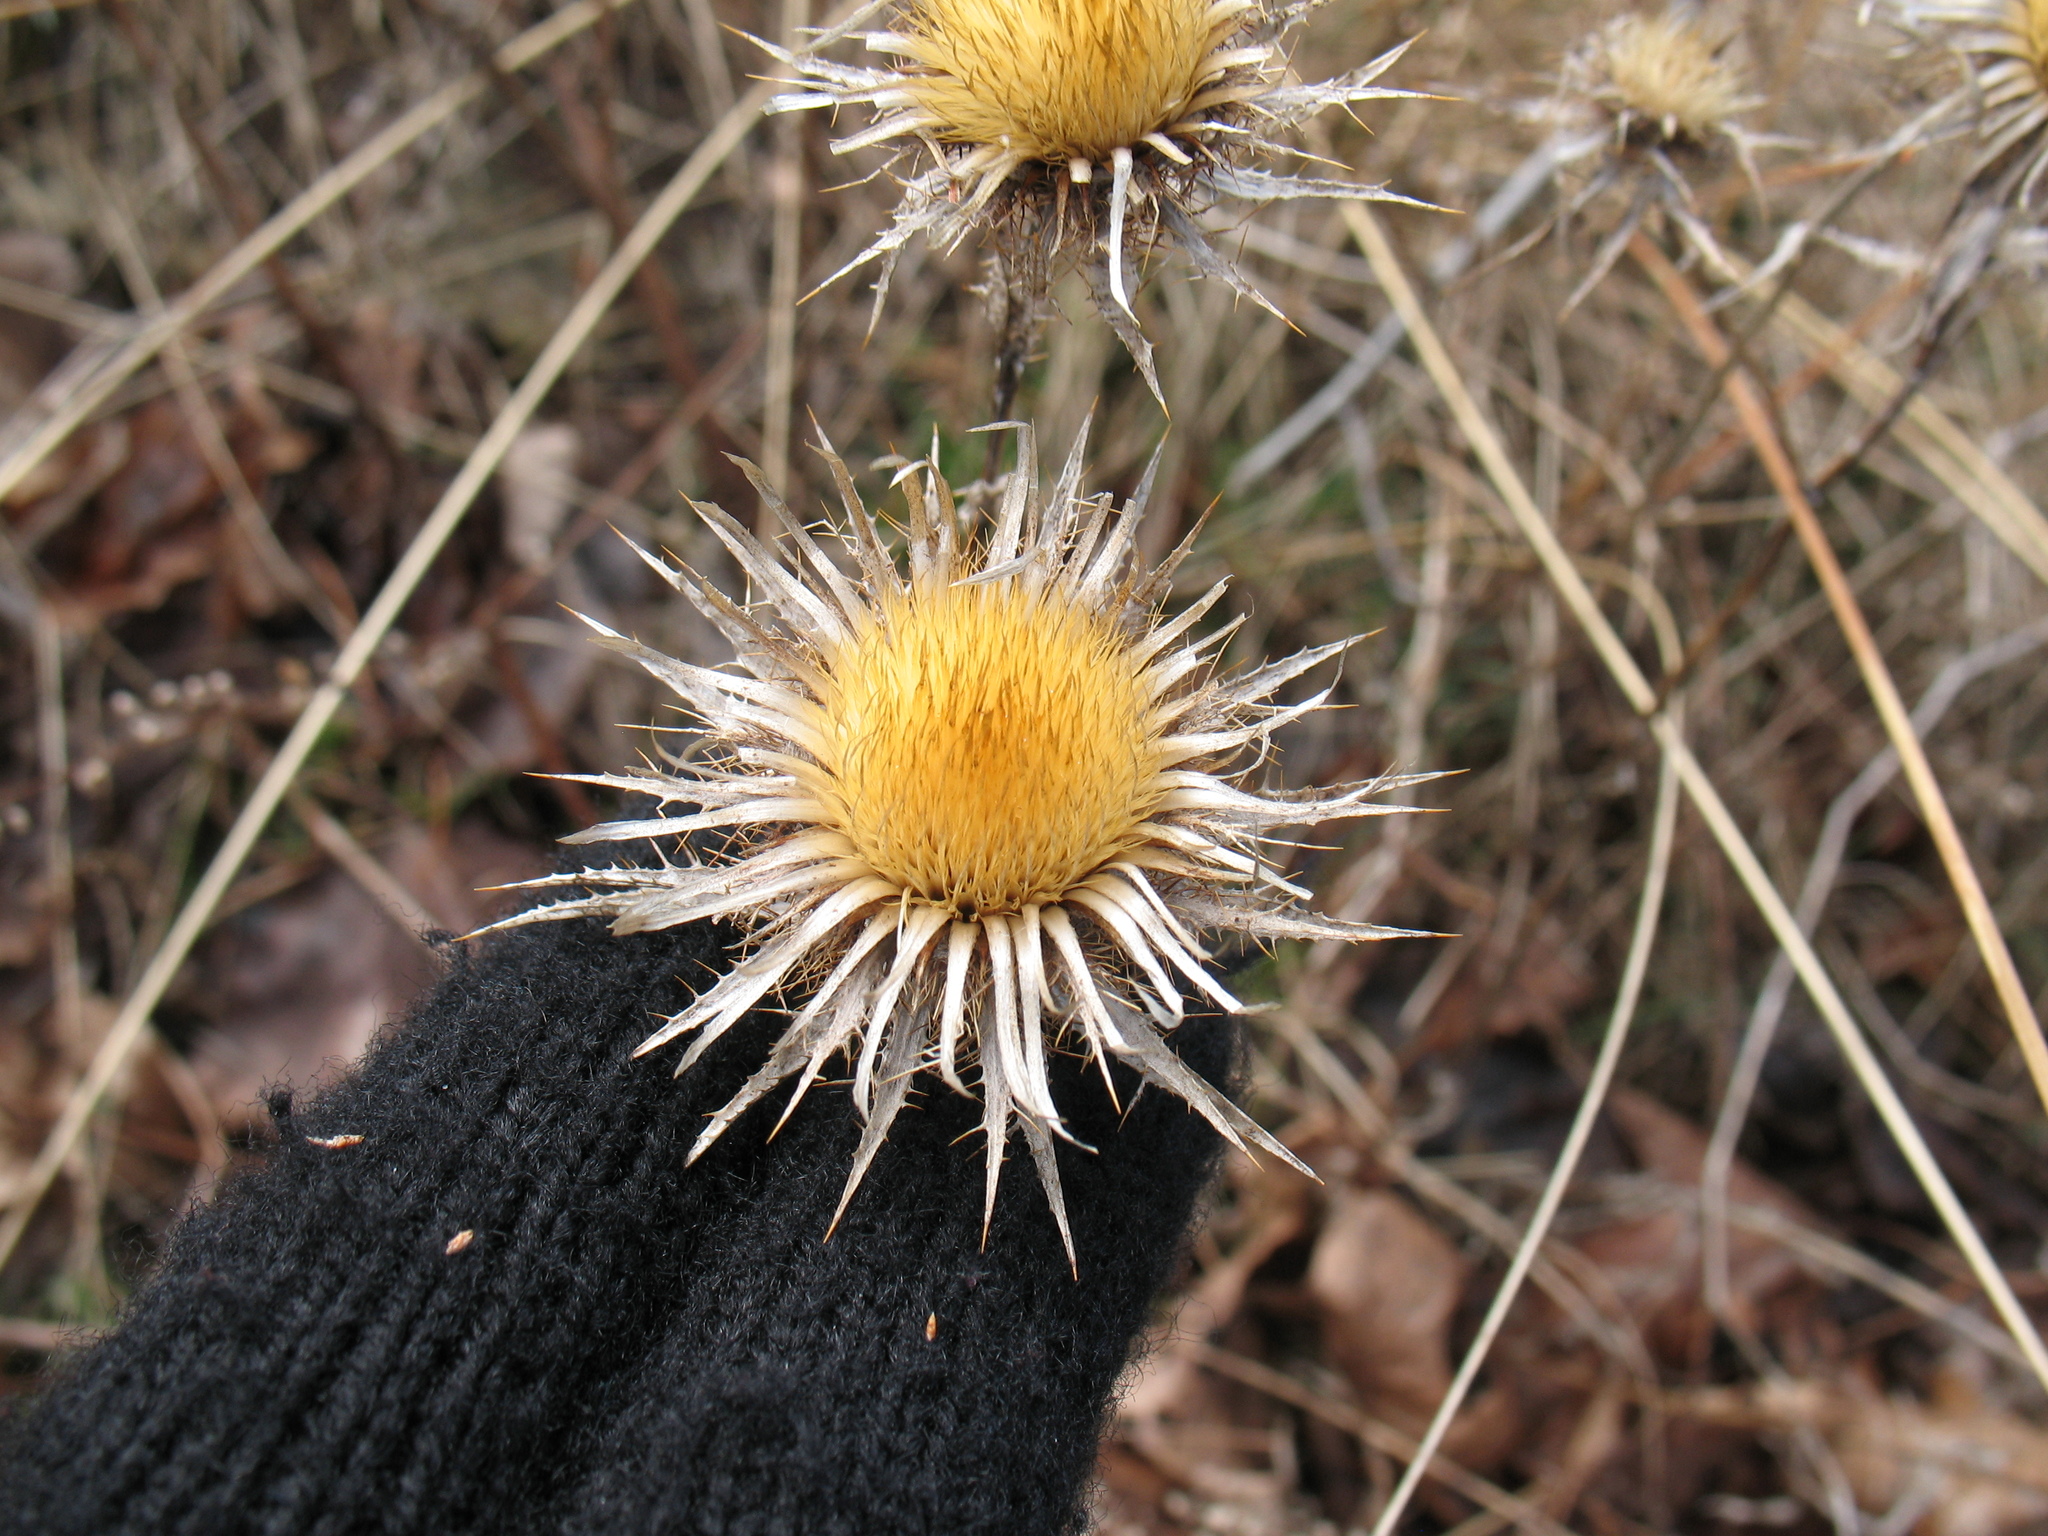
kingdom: Plantae
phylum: Tracheophyta
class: Magnoliopsida
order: Asterales
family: Asteraceae
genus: Carlina
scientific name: Carlina vulgaris
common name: Carline thistle
